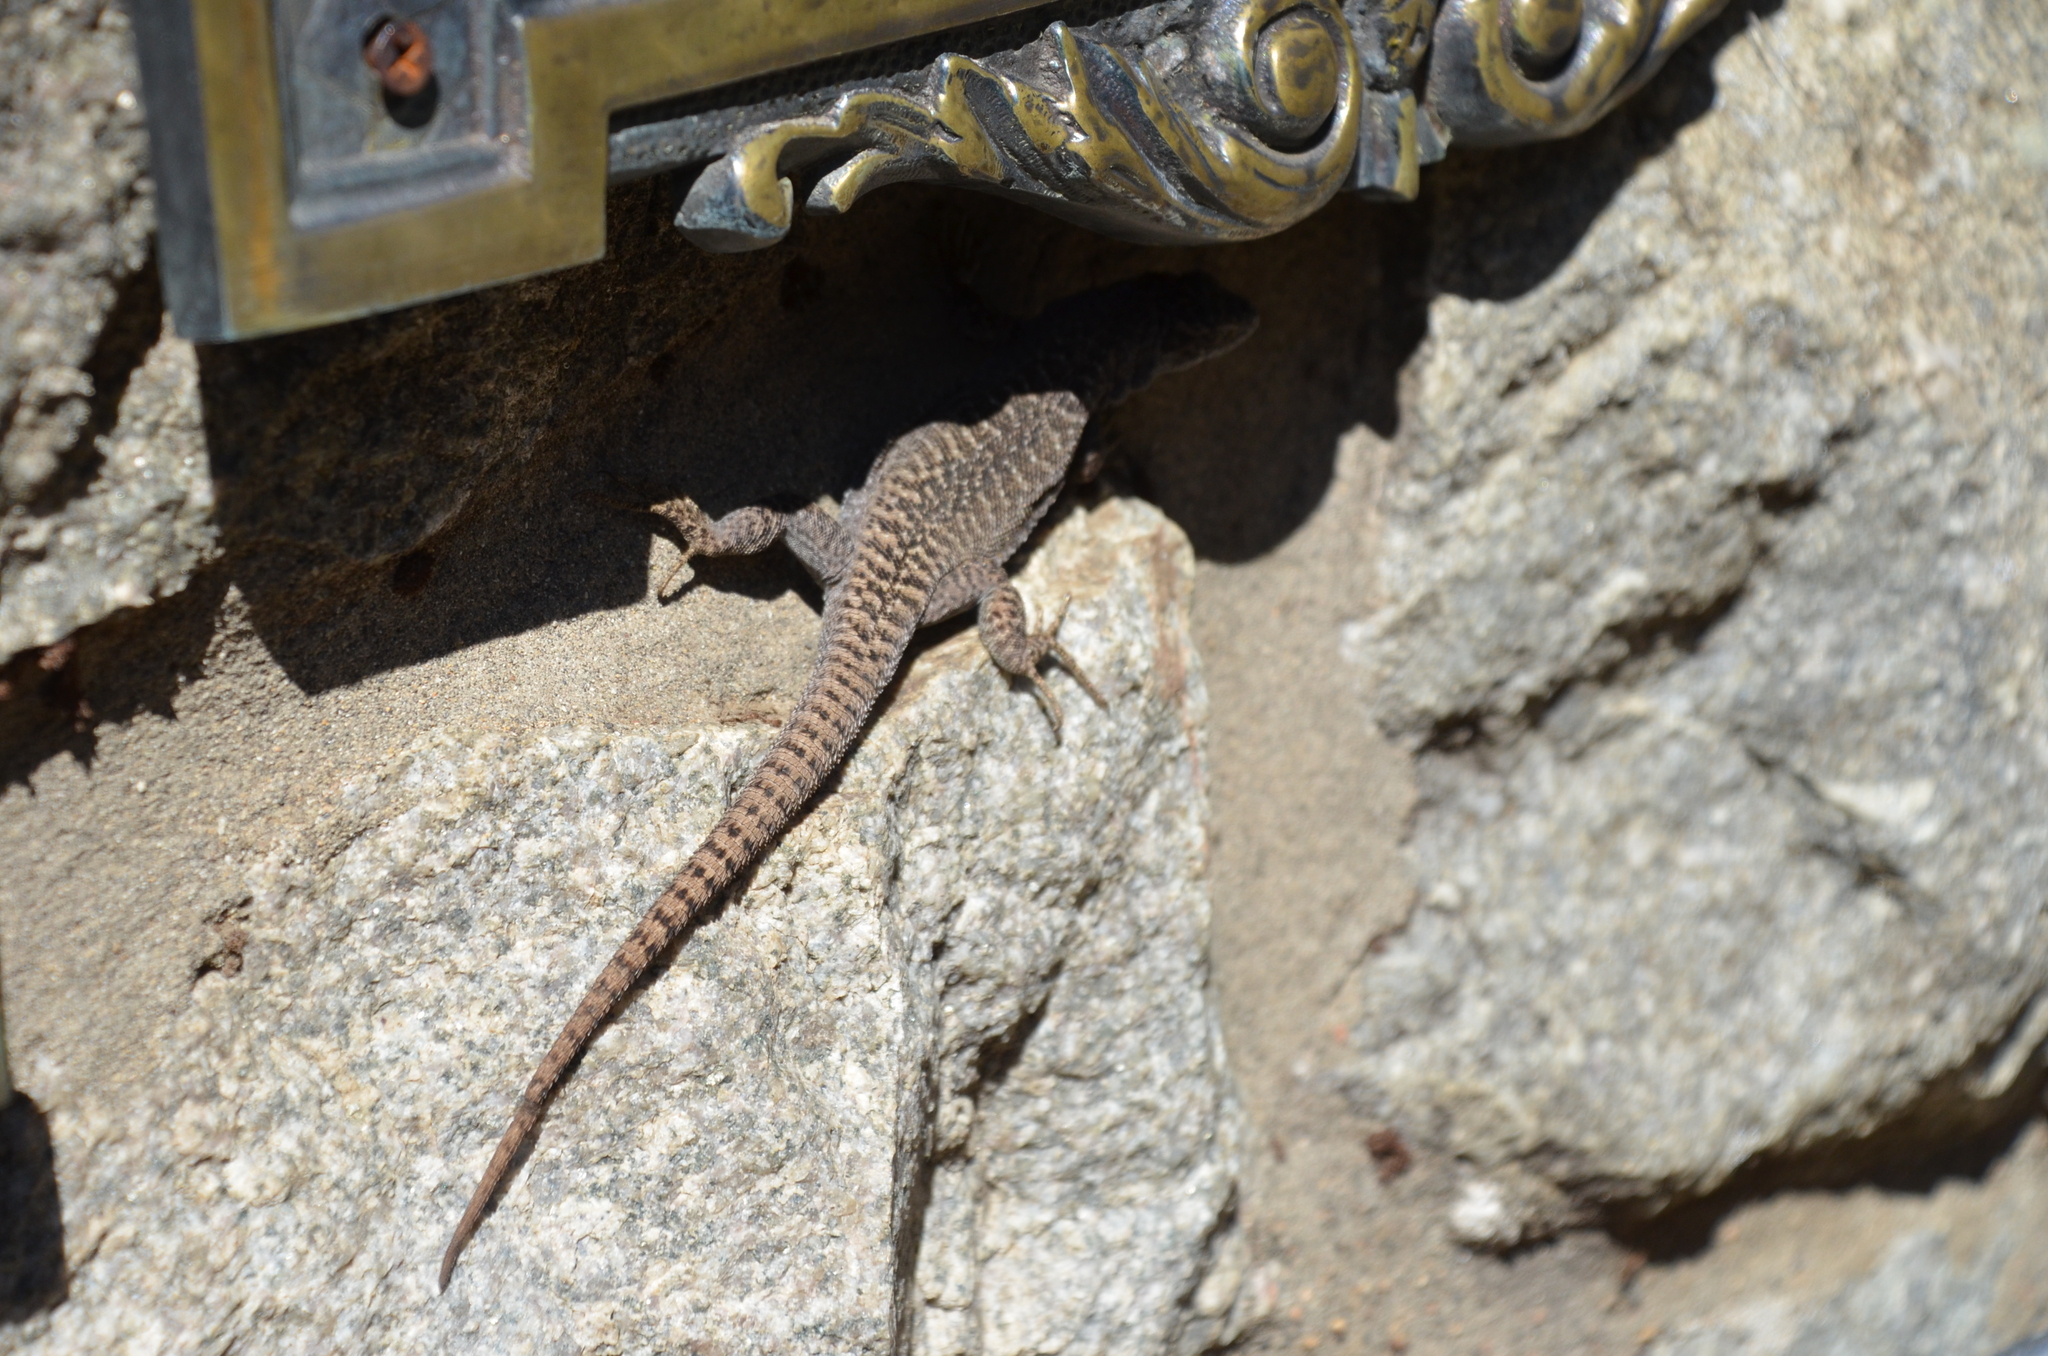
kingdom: Animalia
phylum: Chordata
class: Squamata
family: Liolaemidae
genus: Liolaemus
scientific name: Liolaemus elongatus
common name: Elongate tree iguana
